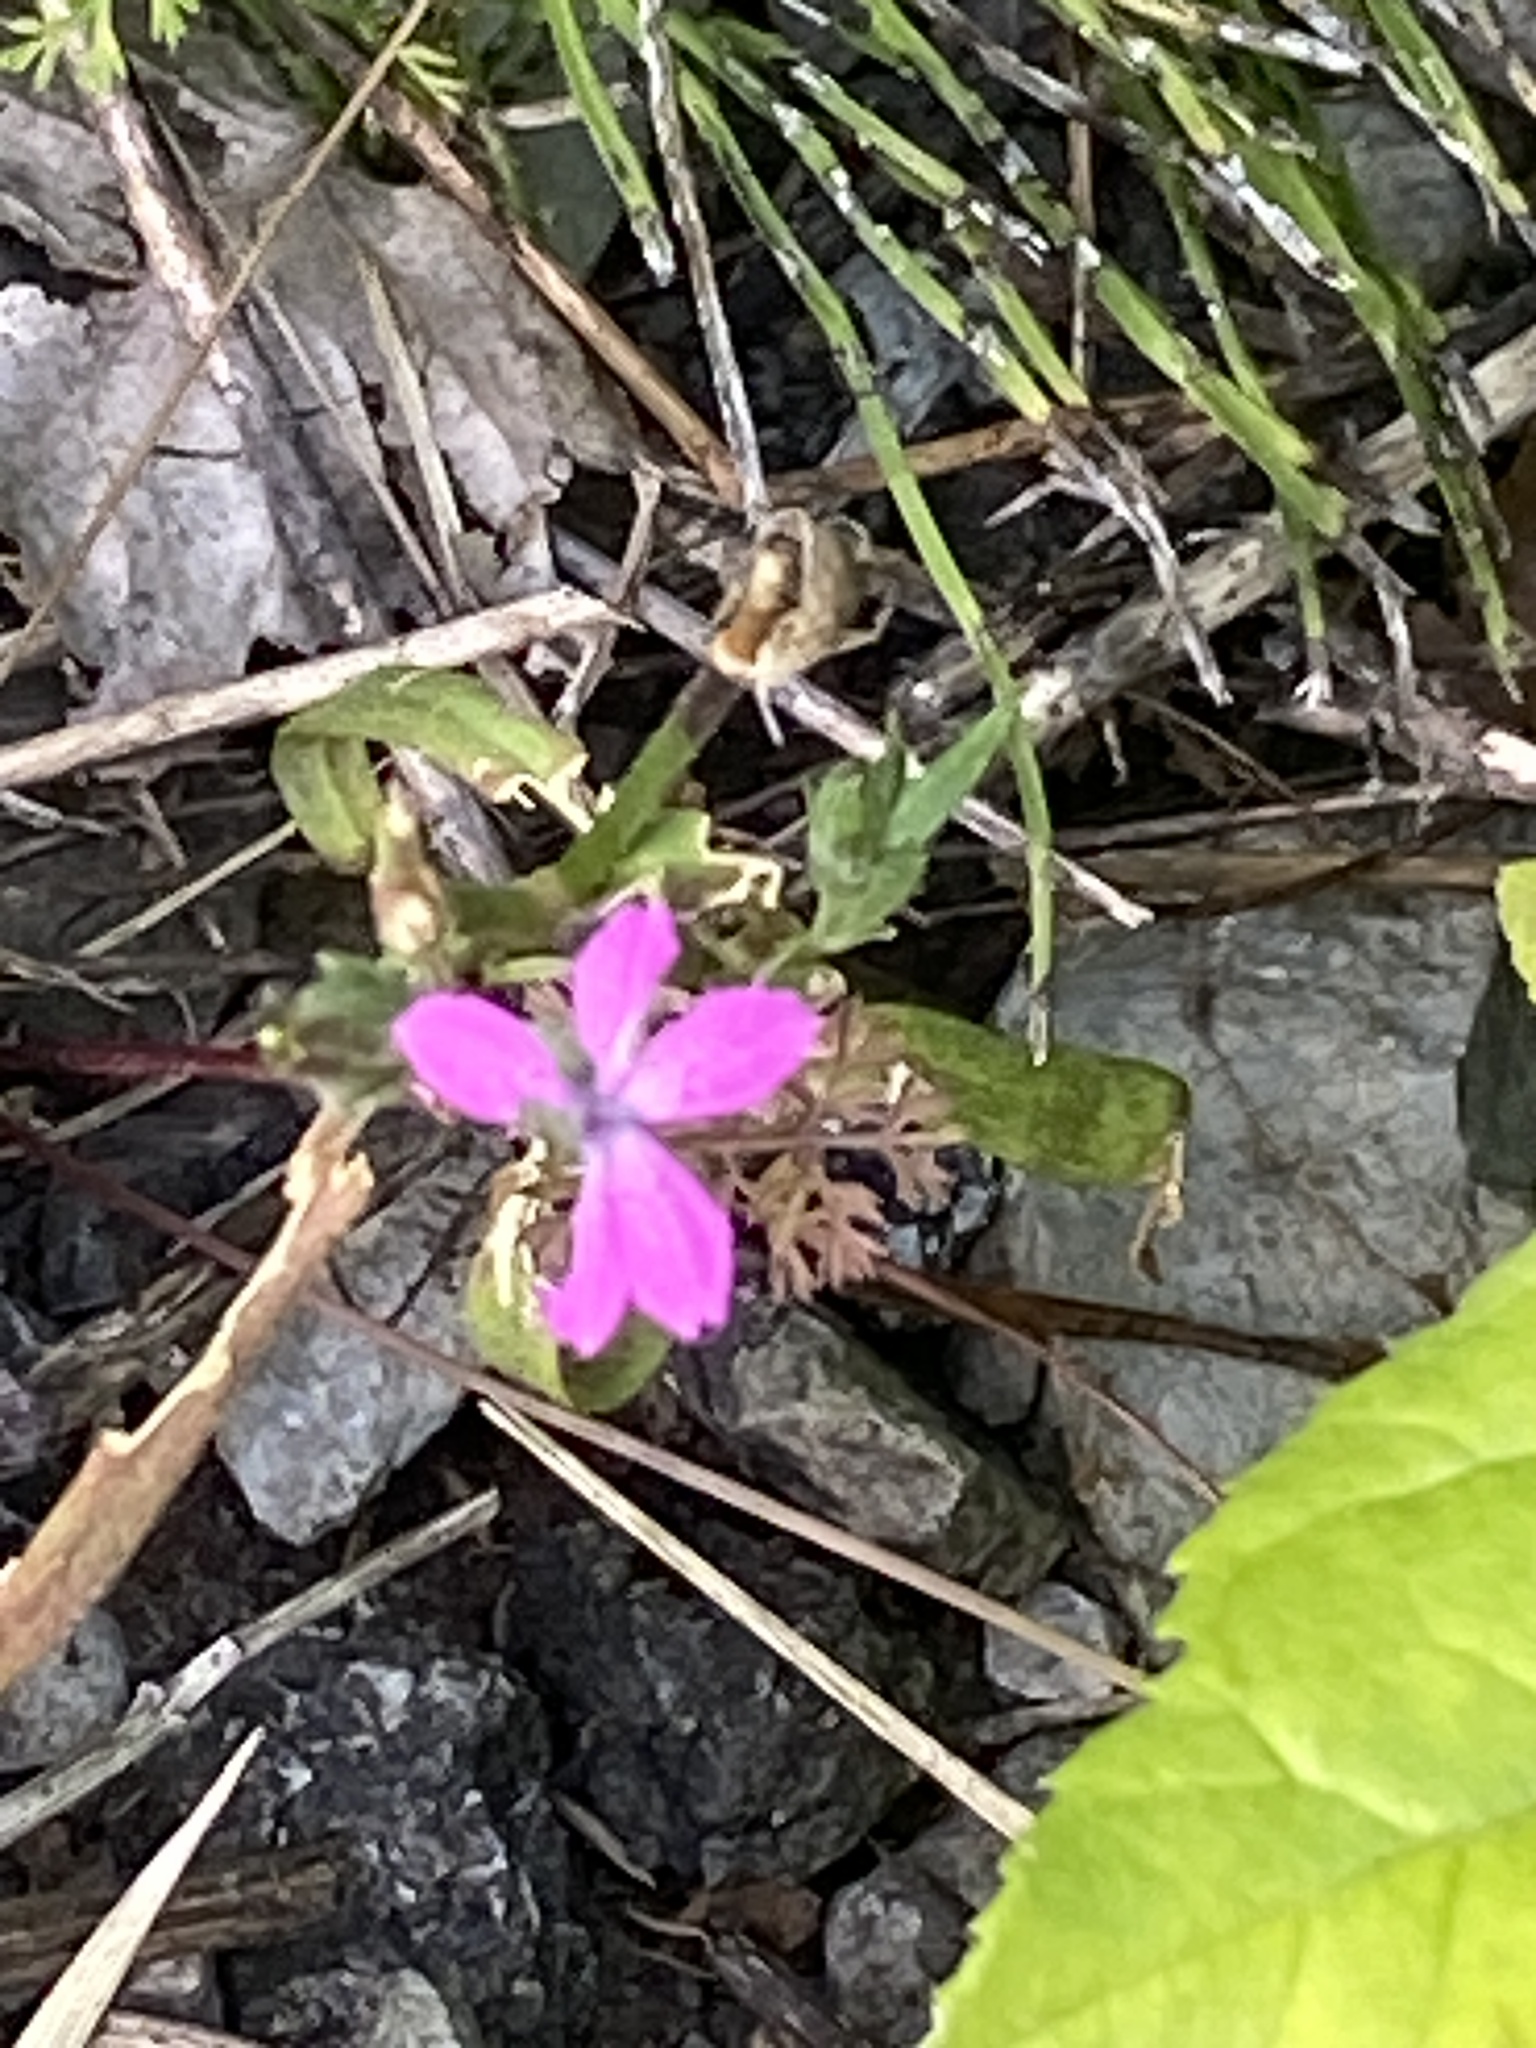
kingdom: Plantae
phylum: Tracheophyta
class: Magnoliopsida
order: Caryophyllales
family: Caryophyllaceae
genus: Dianthus
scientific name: Dianthus armeria
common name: Deptford pink
